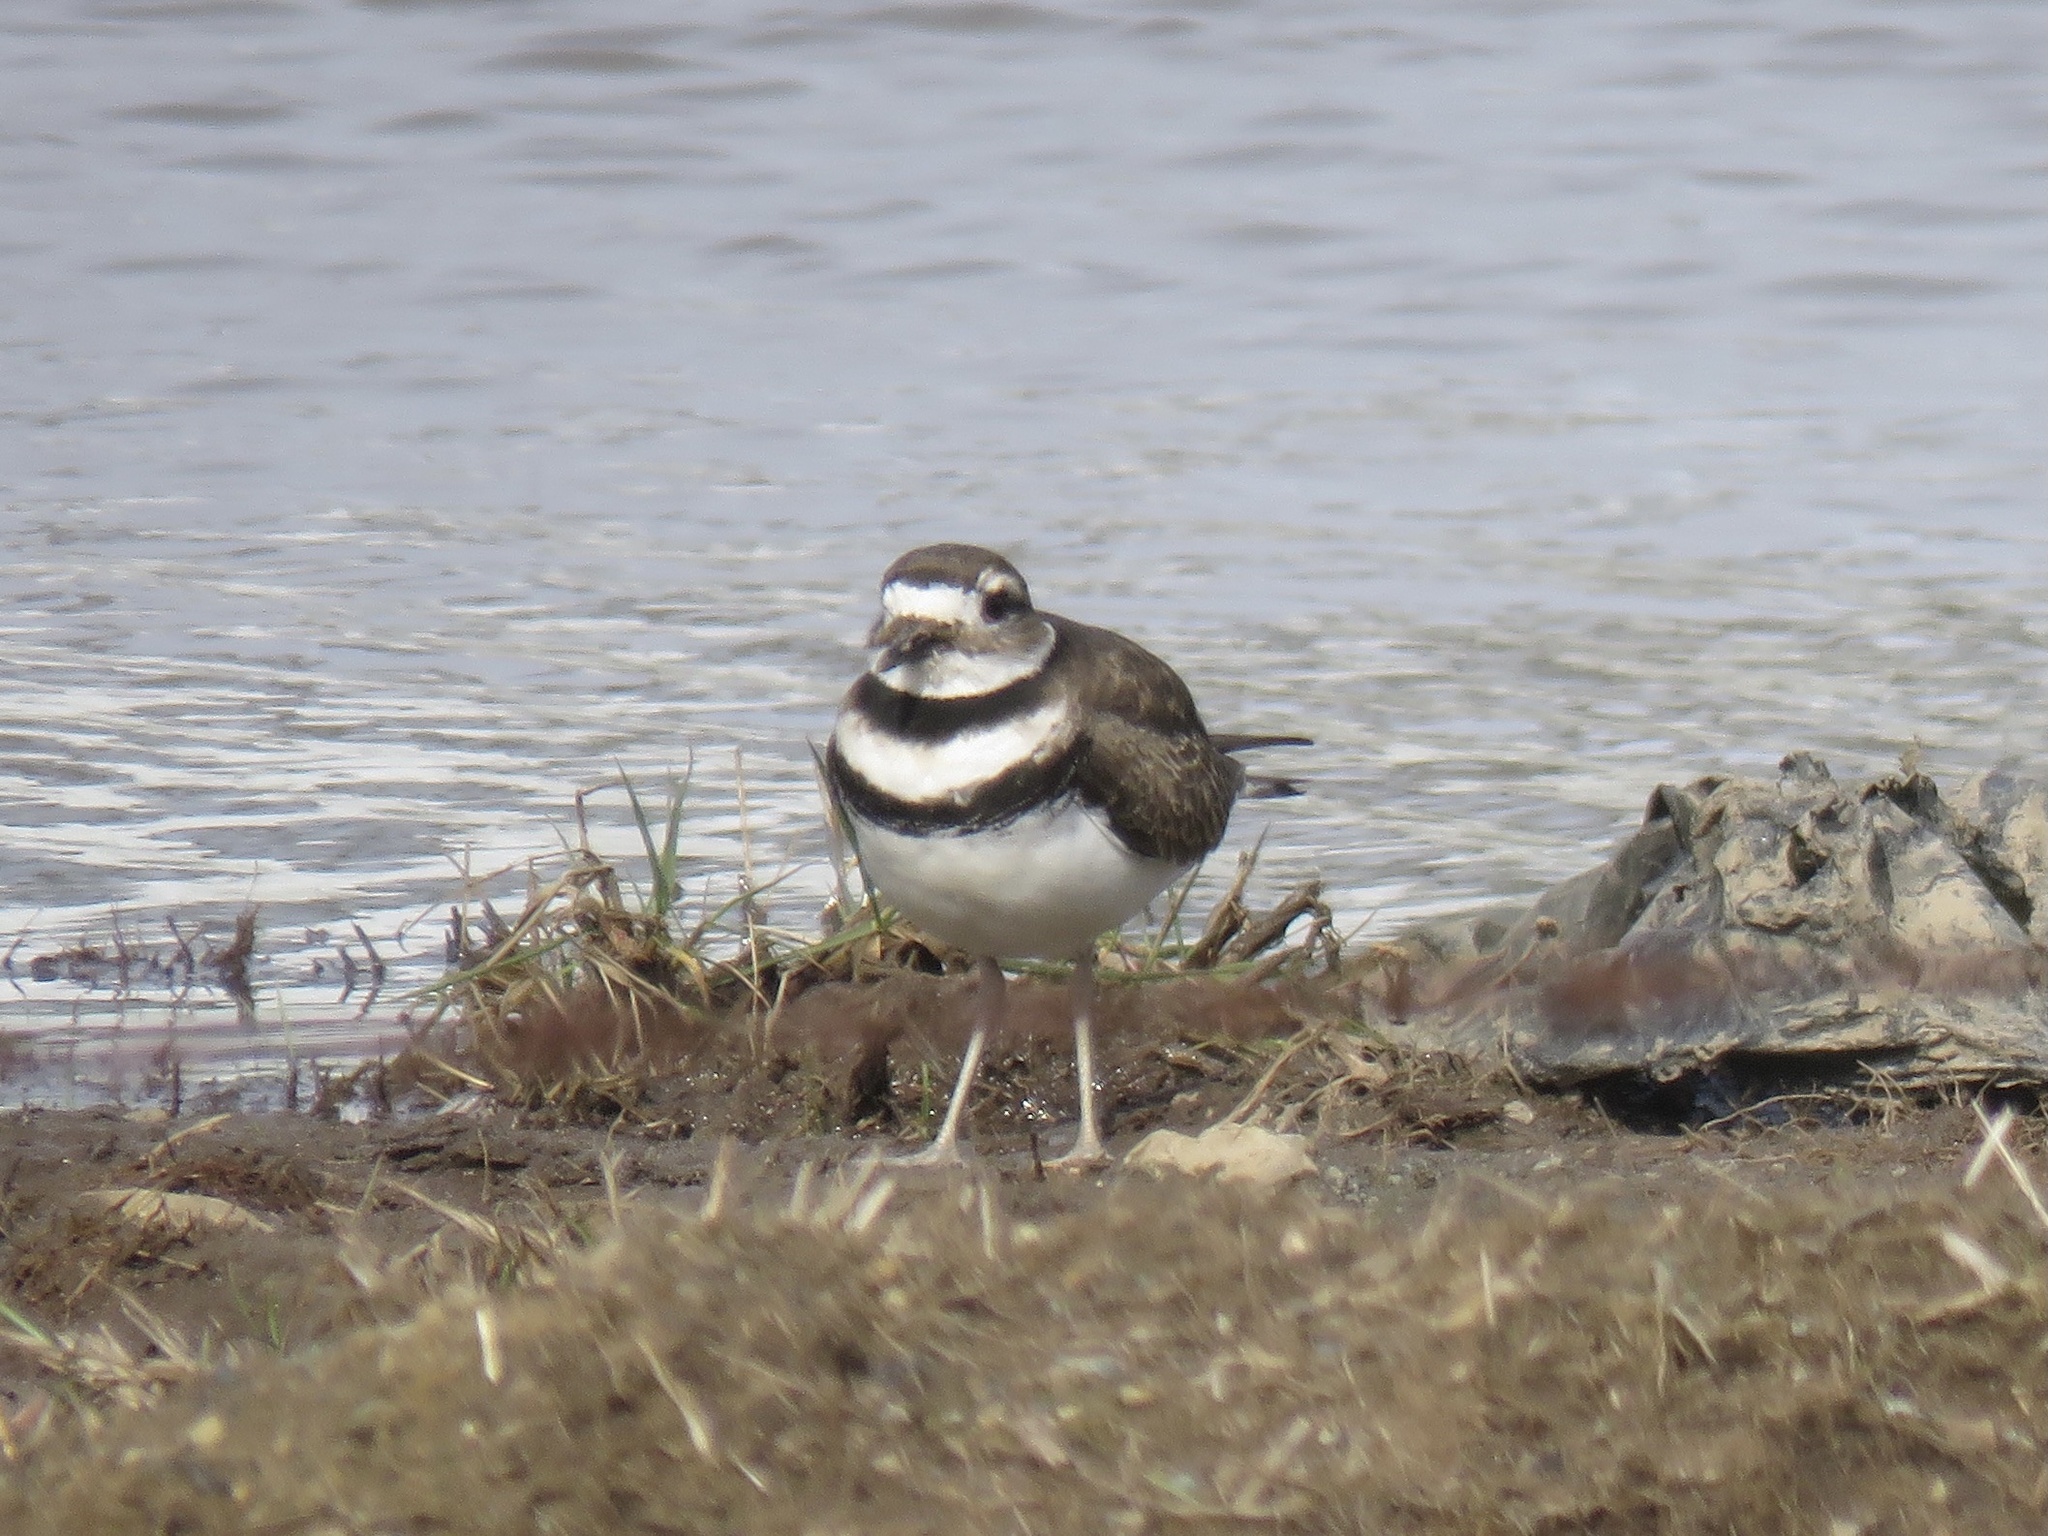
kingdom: Animalia
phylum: Chordata
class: Aves
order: Charadriiformes
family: Charadriidae
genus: Charadrius
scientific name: Charadrius vociferus
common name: Killdeer
